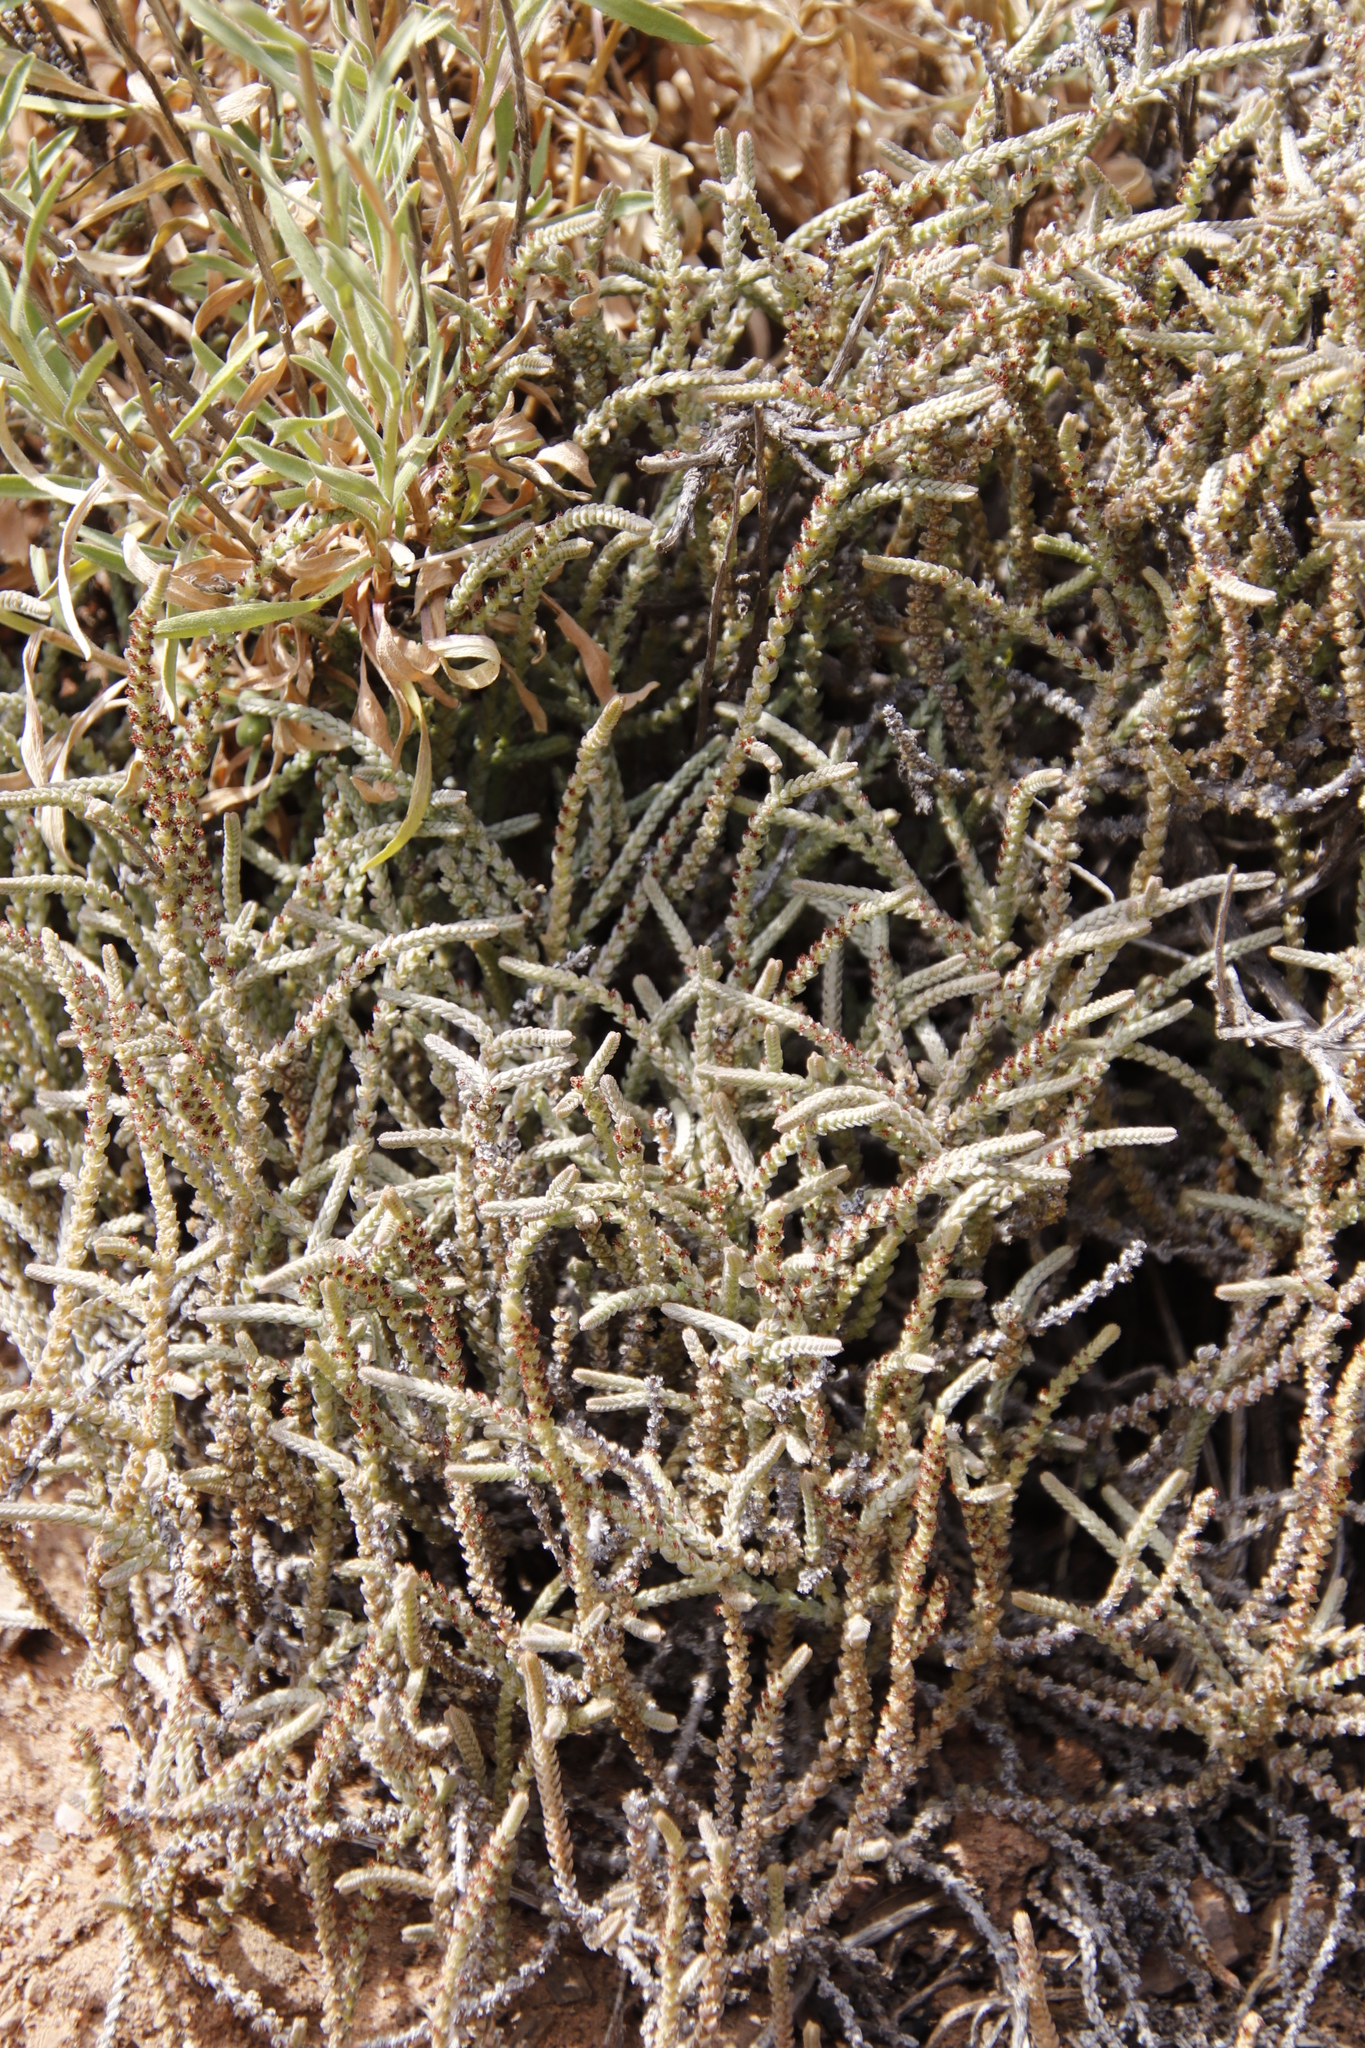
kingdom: Plantae
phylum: Tracheophyta
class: Magnoliopsida
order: Saxifragales
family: Crassulaceae
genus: Crassula
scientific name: Crassula muscosa
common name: Toy-cypress
